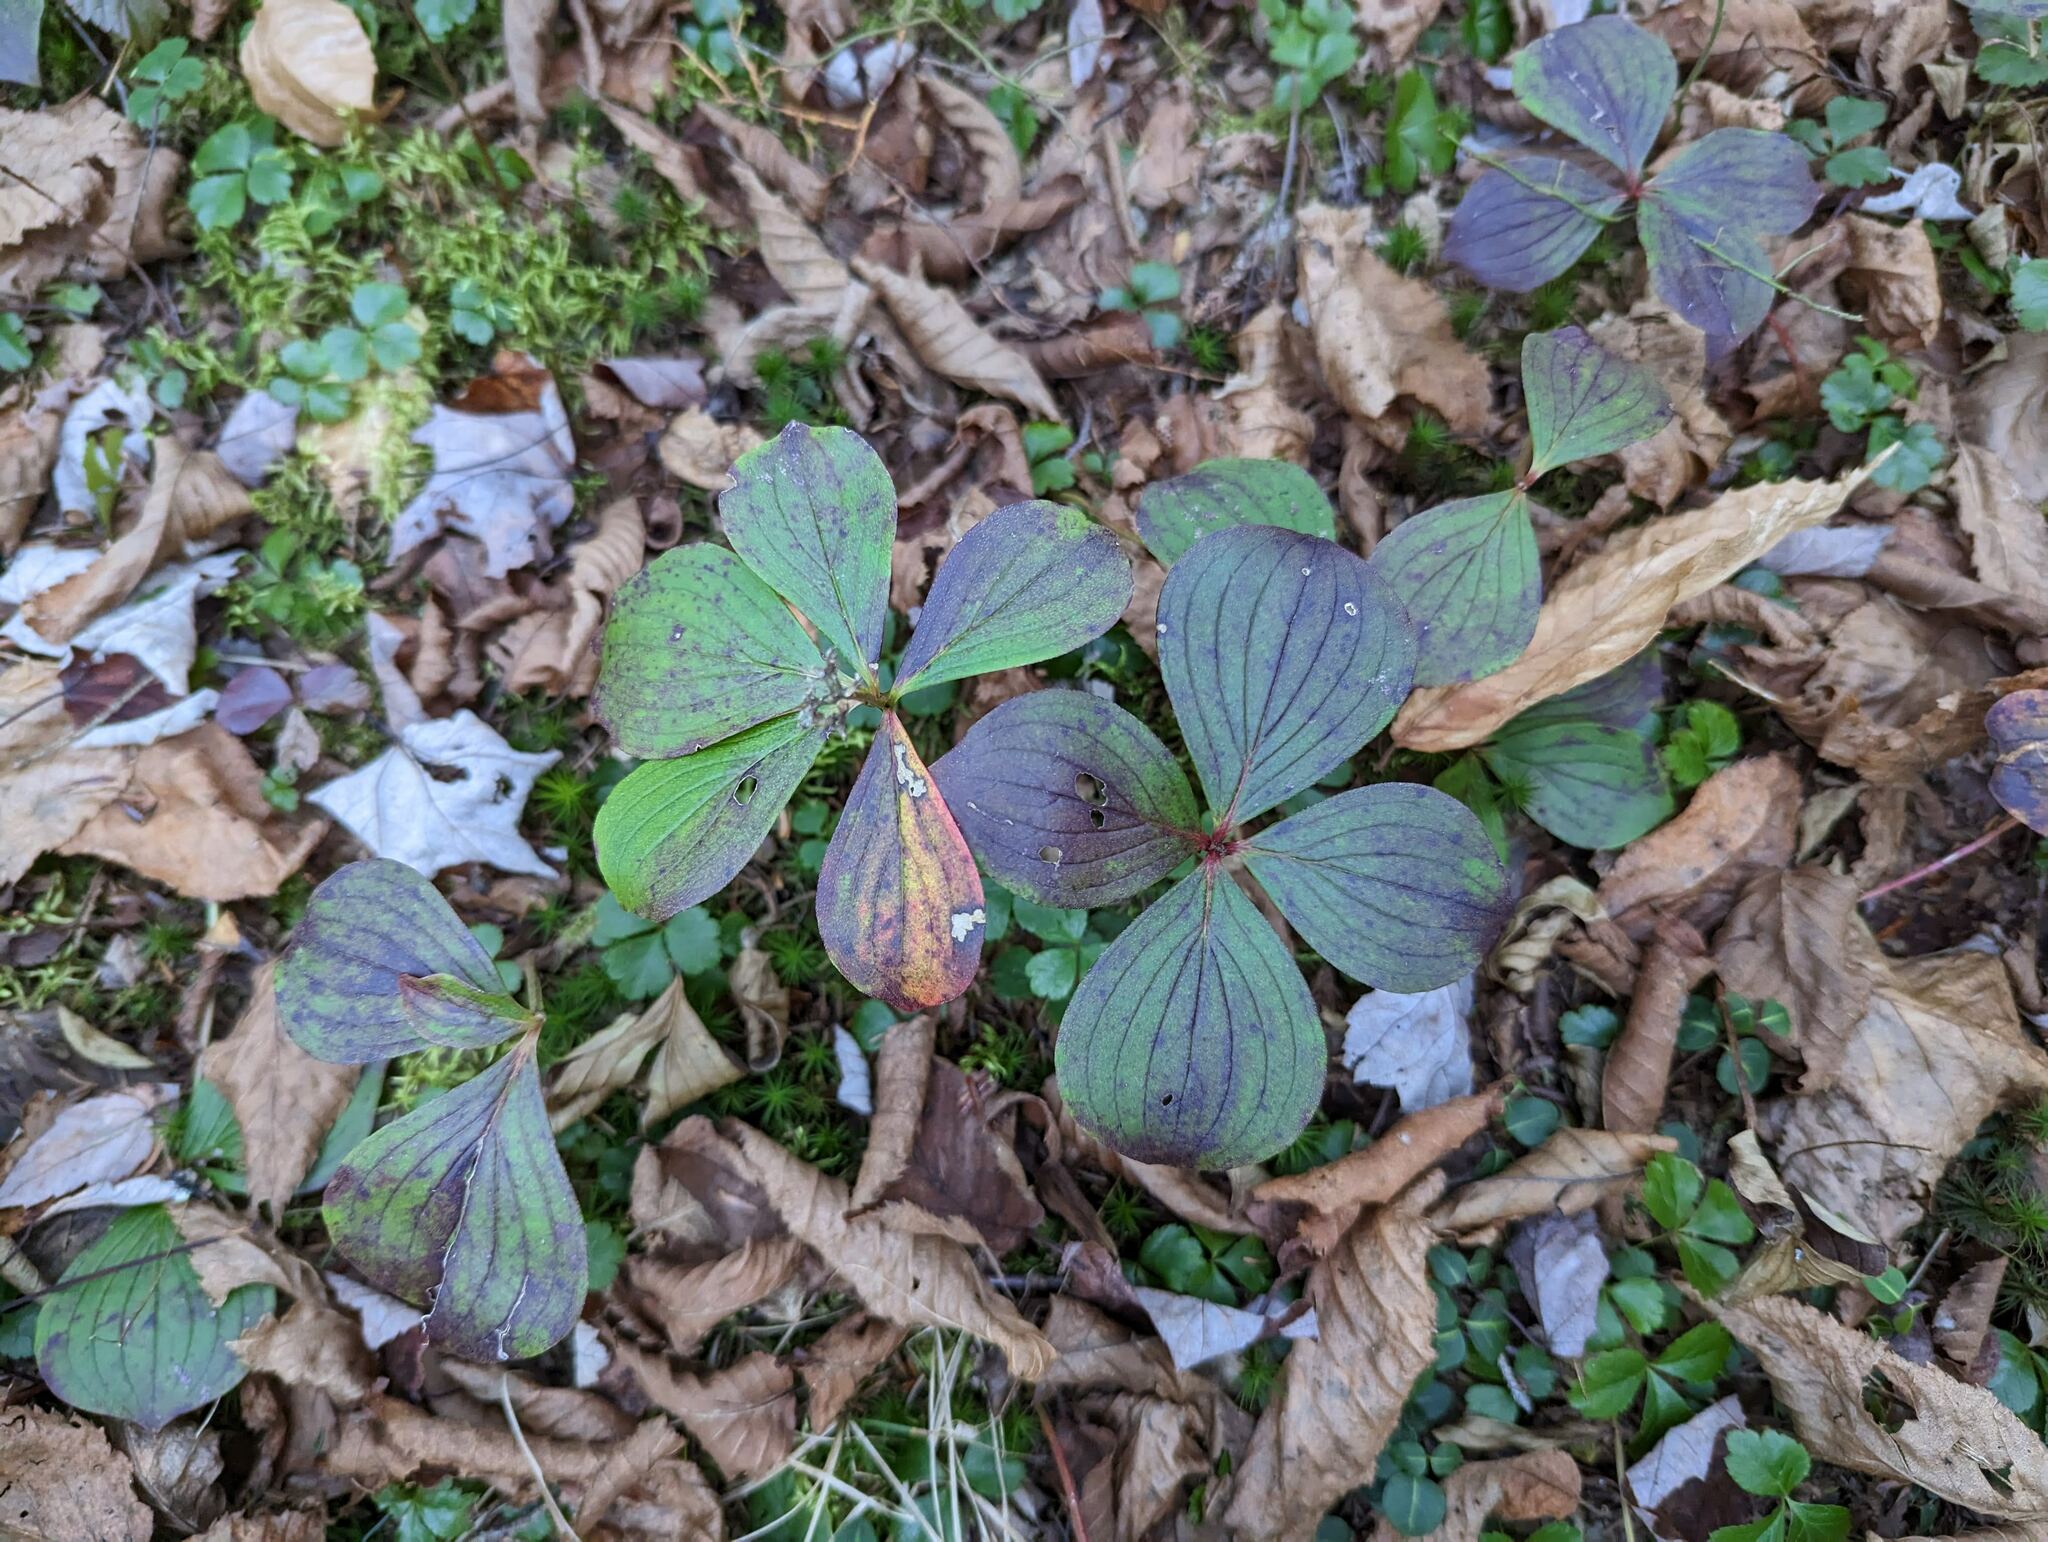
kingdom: Plantae
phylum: Tracheophyta
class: Magnoliopsida
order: Cornales
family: Cornaceae
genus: Cornus
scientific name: Cornus canadensis
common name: Creeping dogwood
